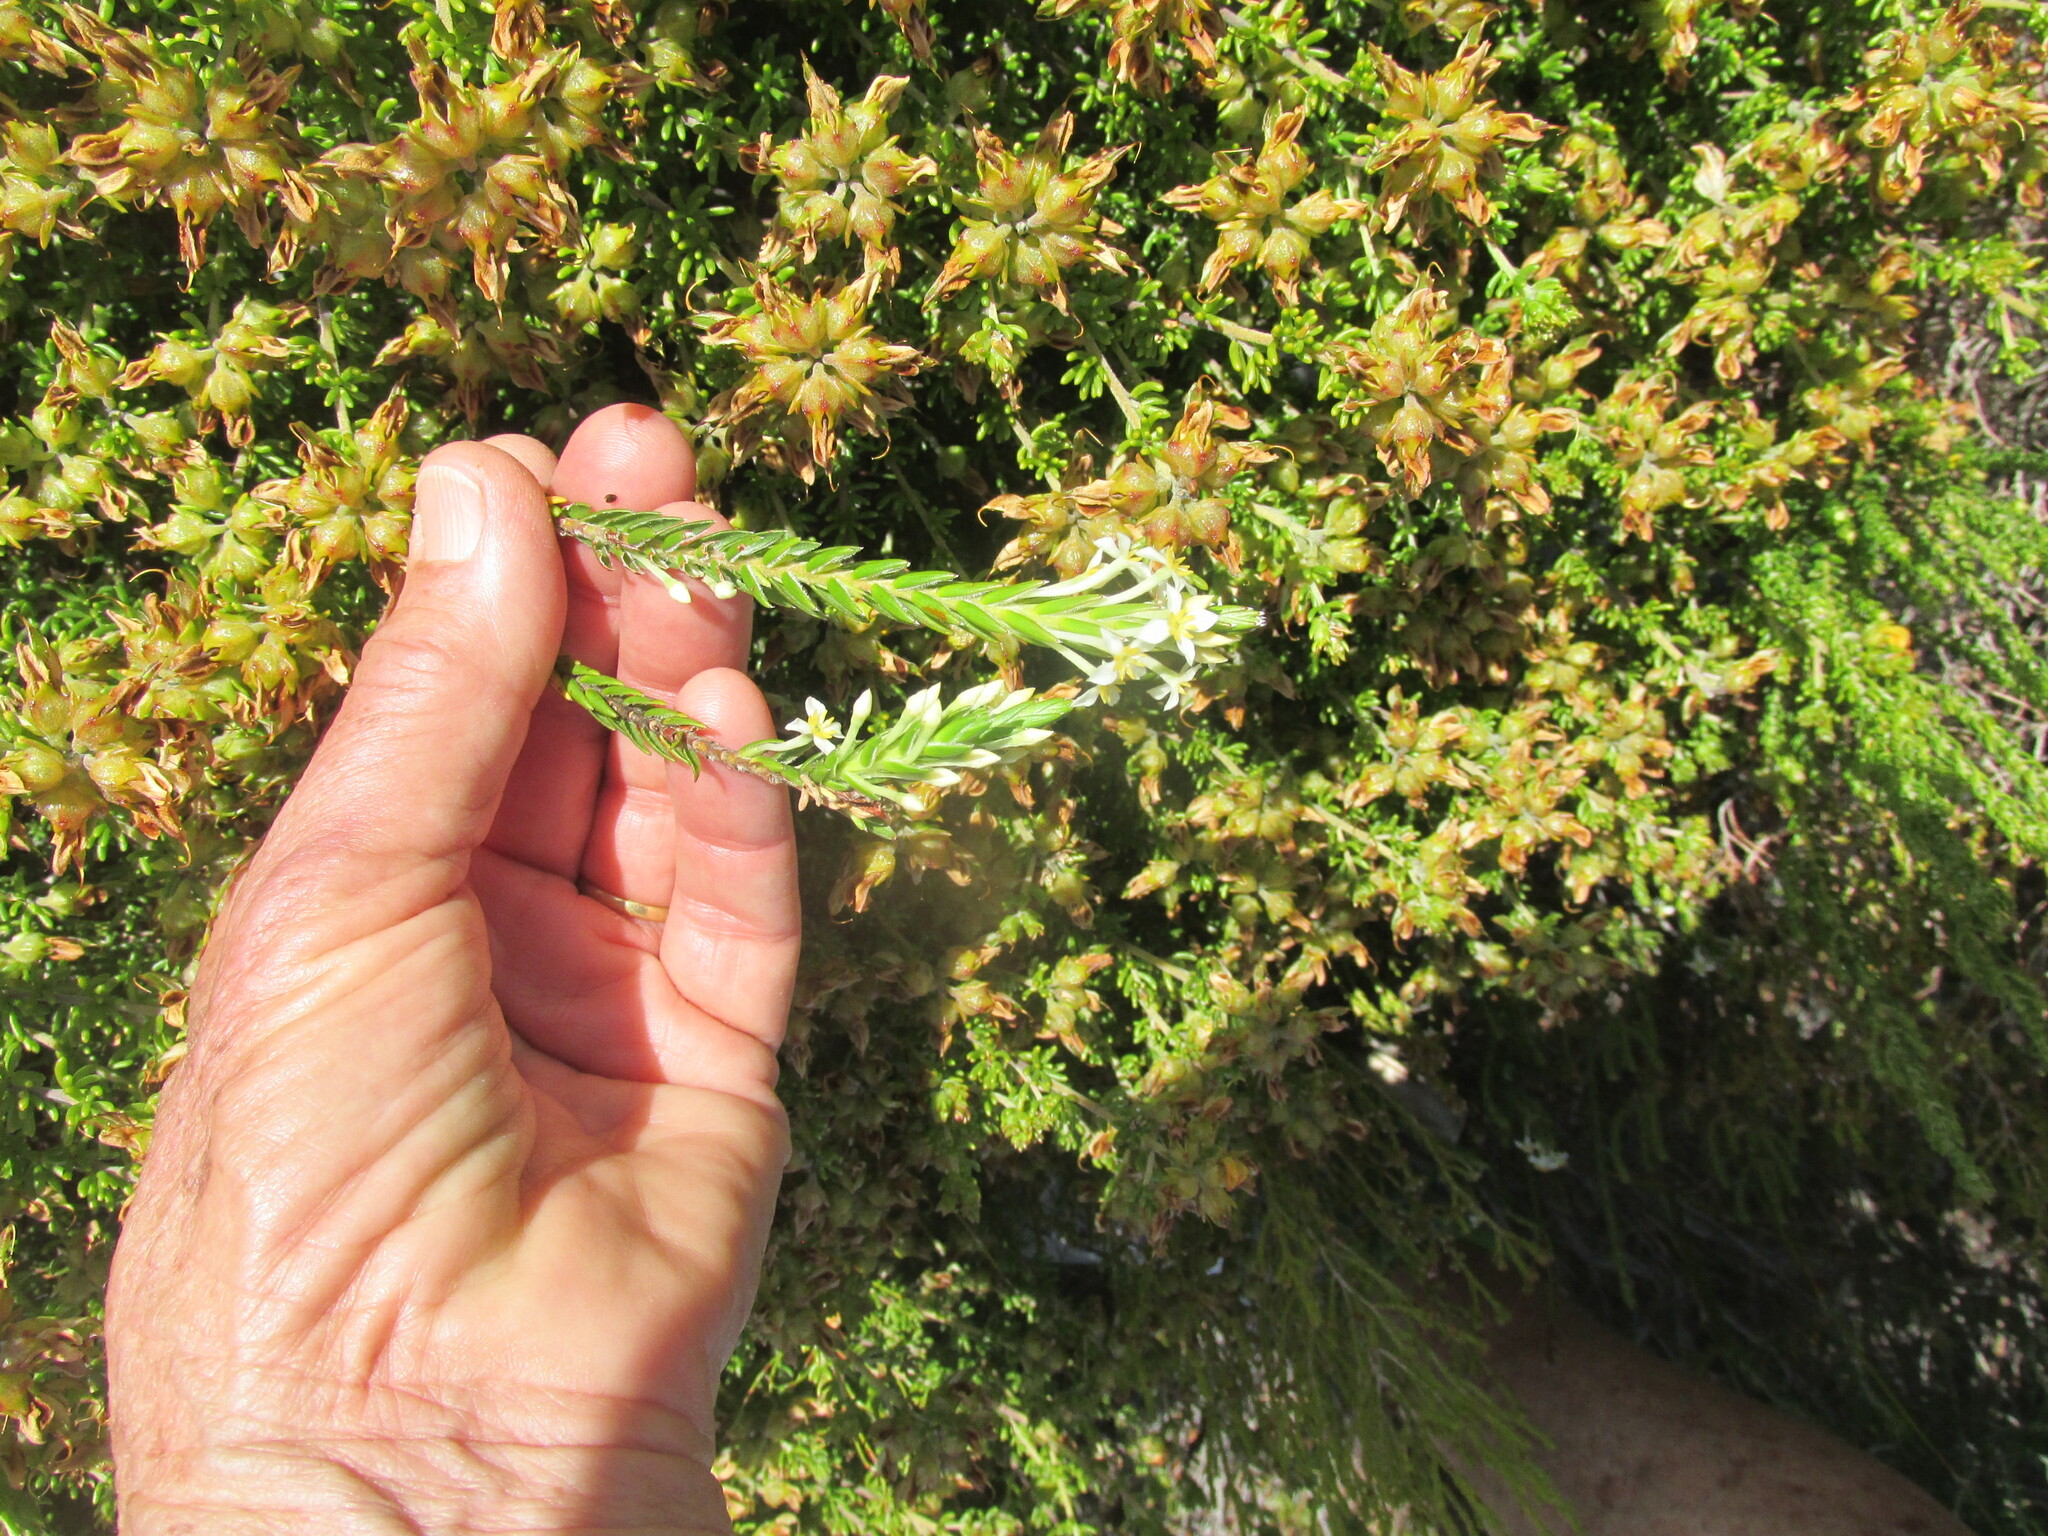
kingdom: Plantae
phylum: Tracheophyta
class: Magnoliopsida
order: Malvales
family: Thymelaeaceae
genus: Struthiola
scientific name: Struthiola ciliata
